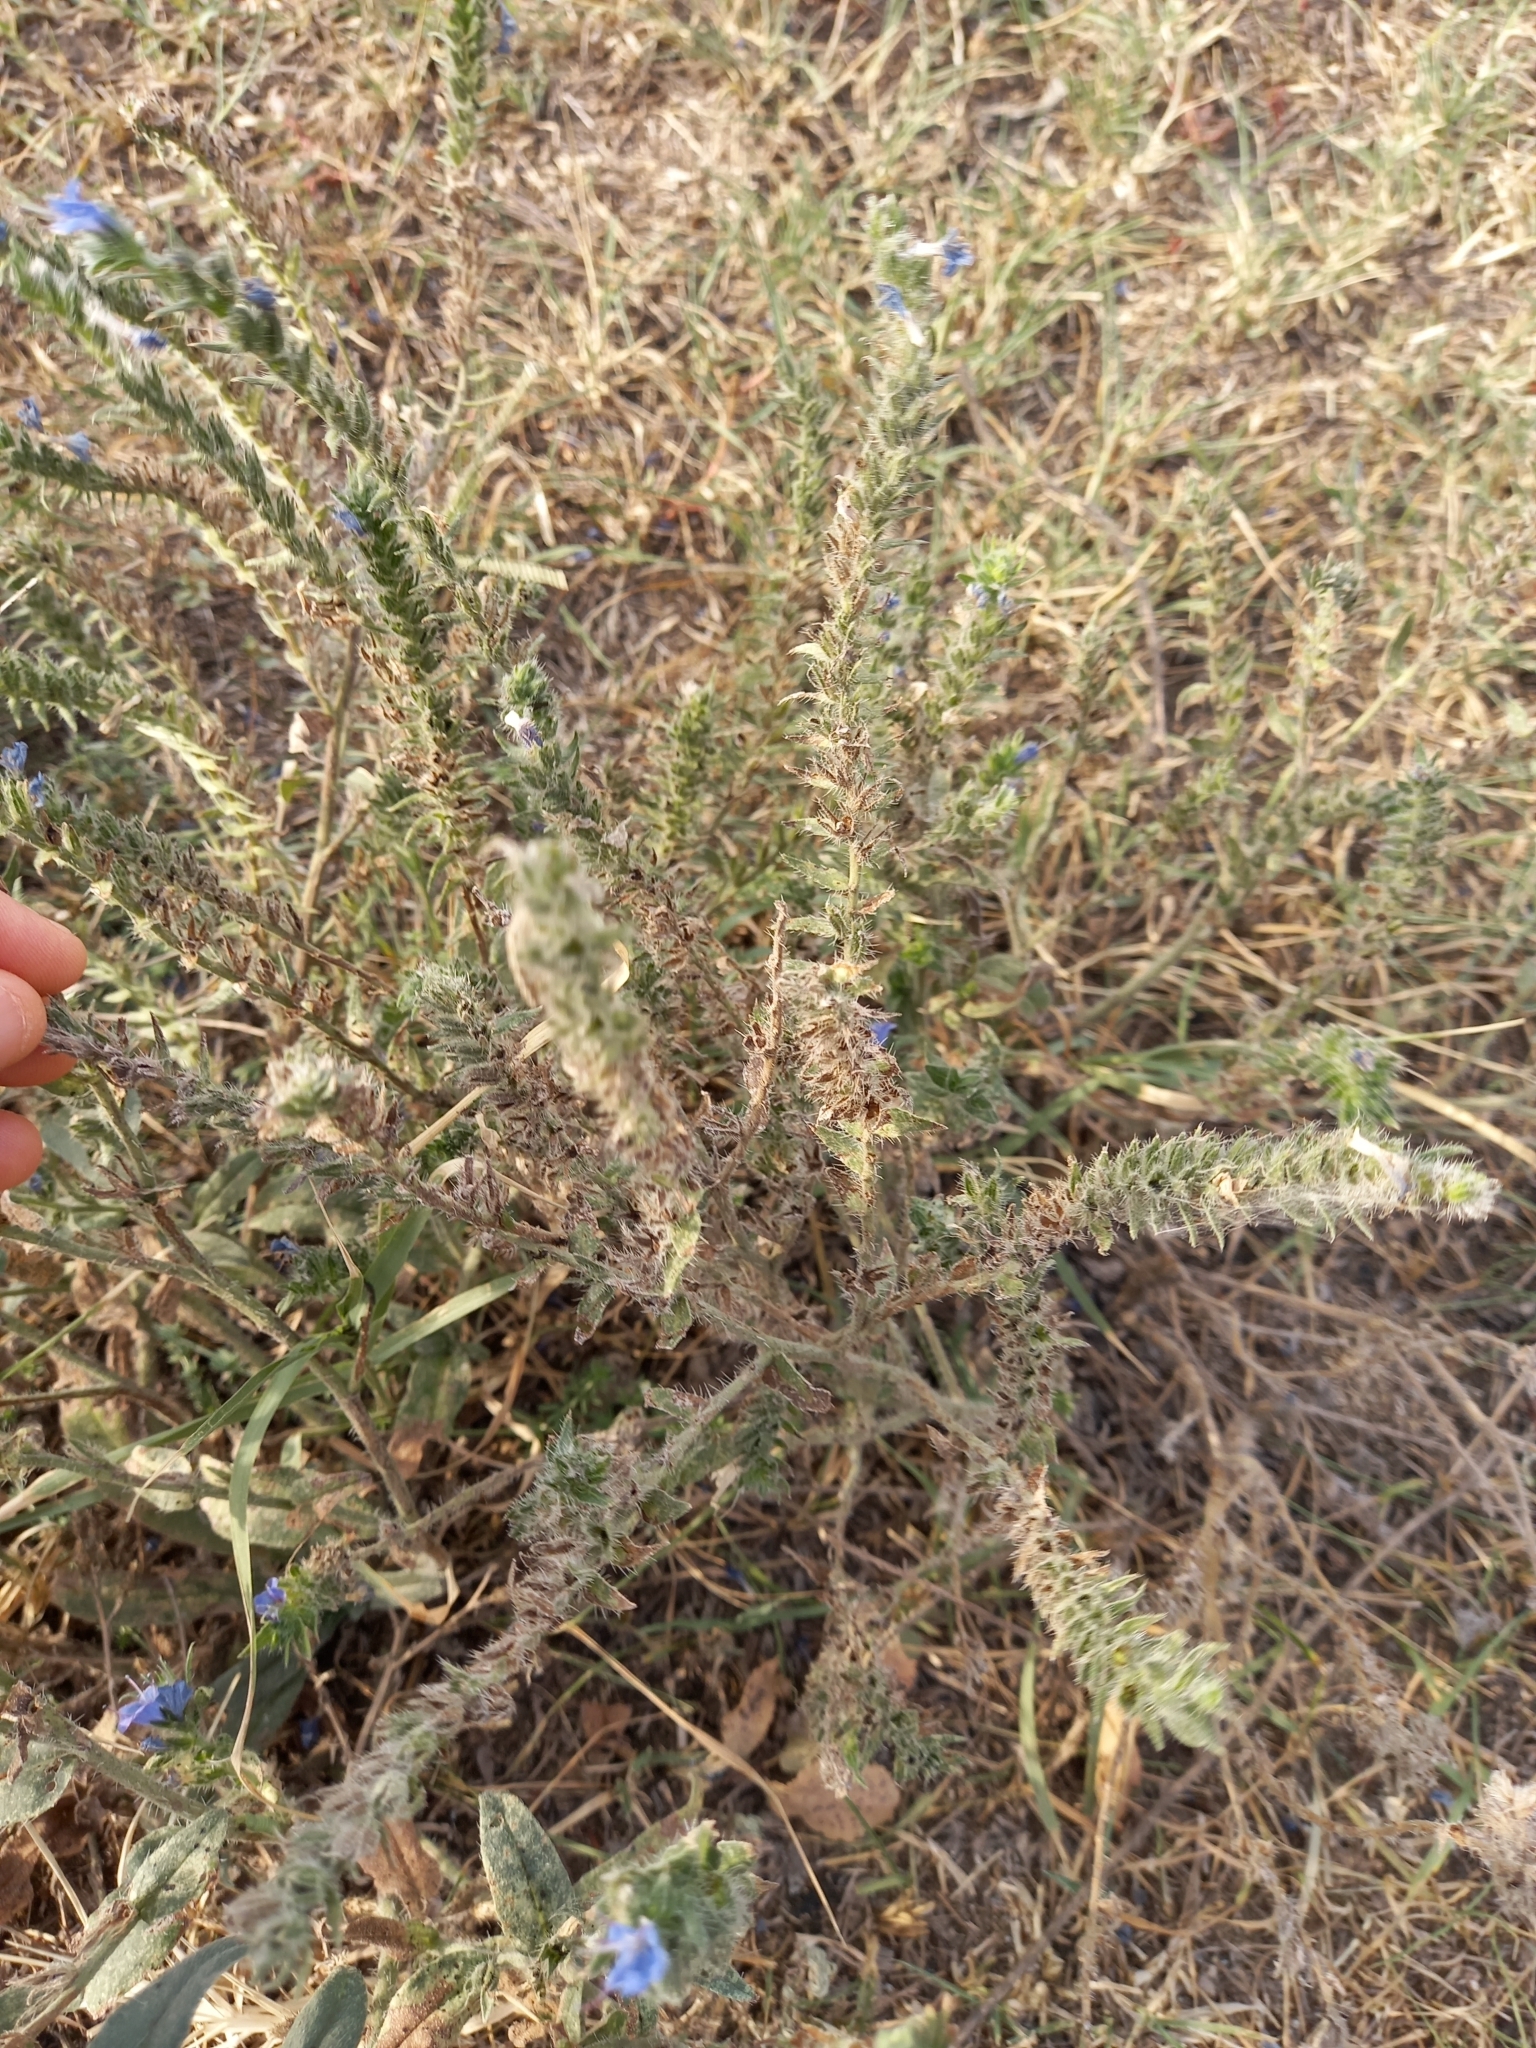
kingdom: Plantae
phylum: Tracheophyta
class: Magnoliopsida
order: Boraginales
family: Boraginaceae
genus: Echium
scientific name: Echium vulgare
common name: Common viper's bugloss
